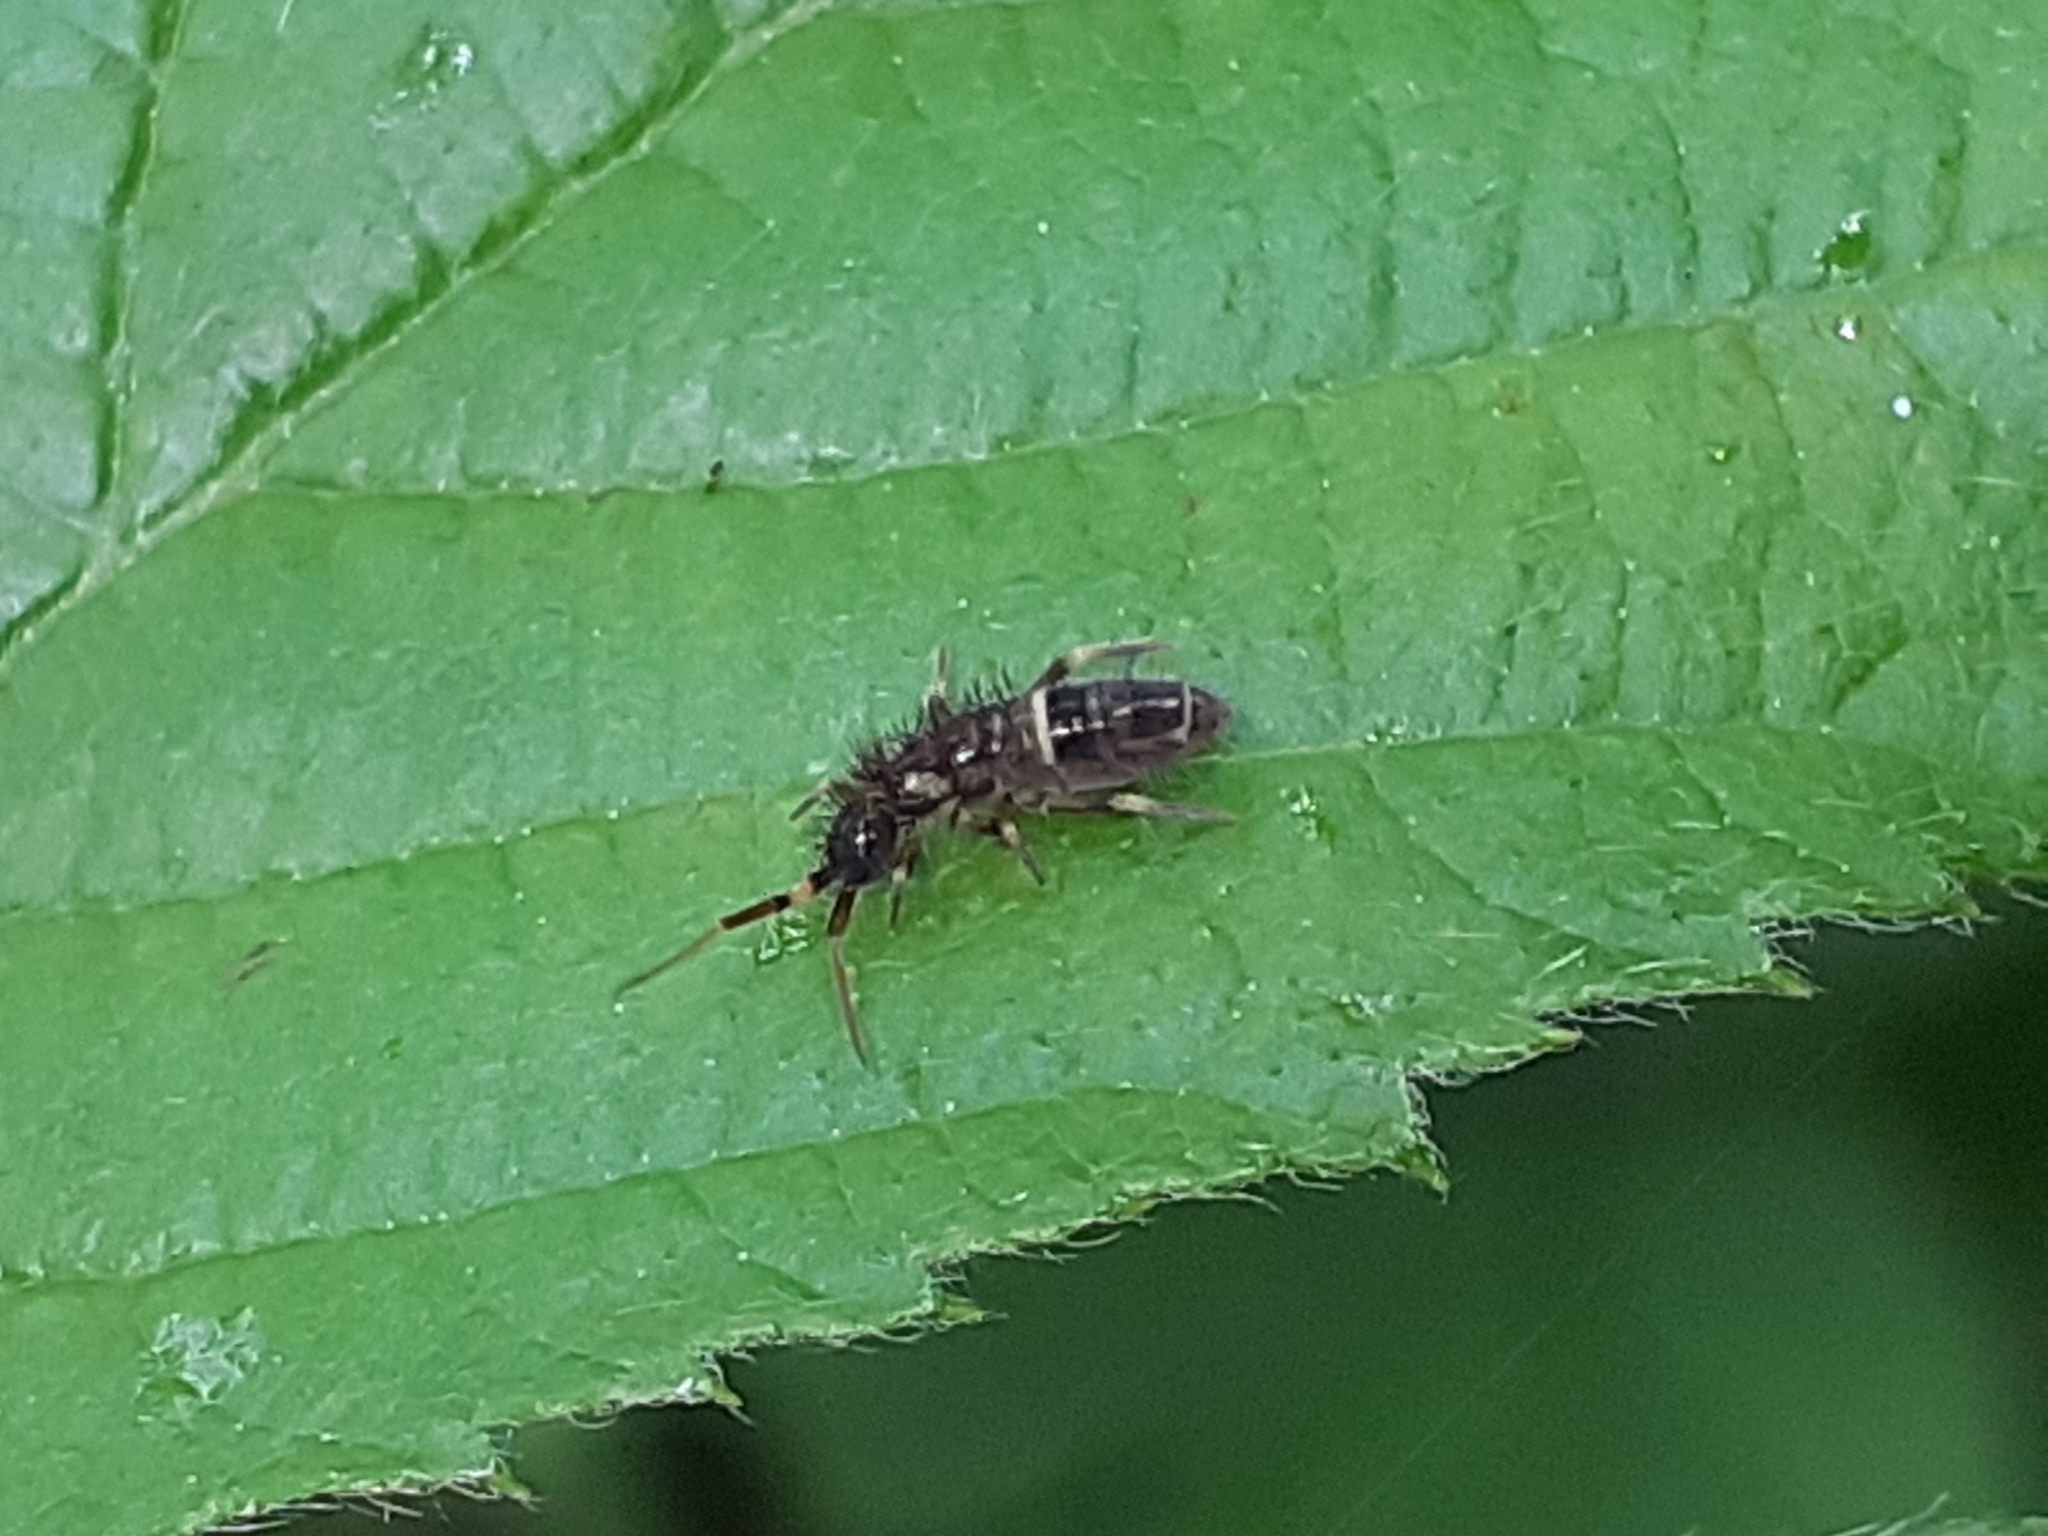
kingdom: Animalia
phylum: Arthropoda
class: Collembola
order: Entomobryomorpha
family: Orchesellidae
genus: Orchesella
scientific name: Orchesella cincta
